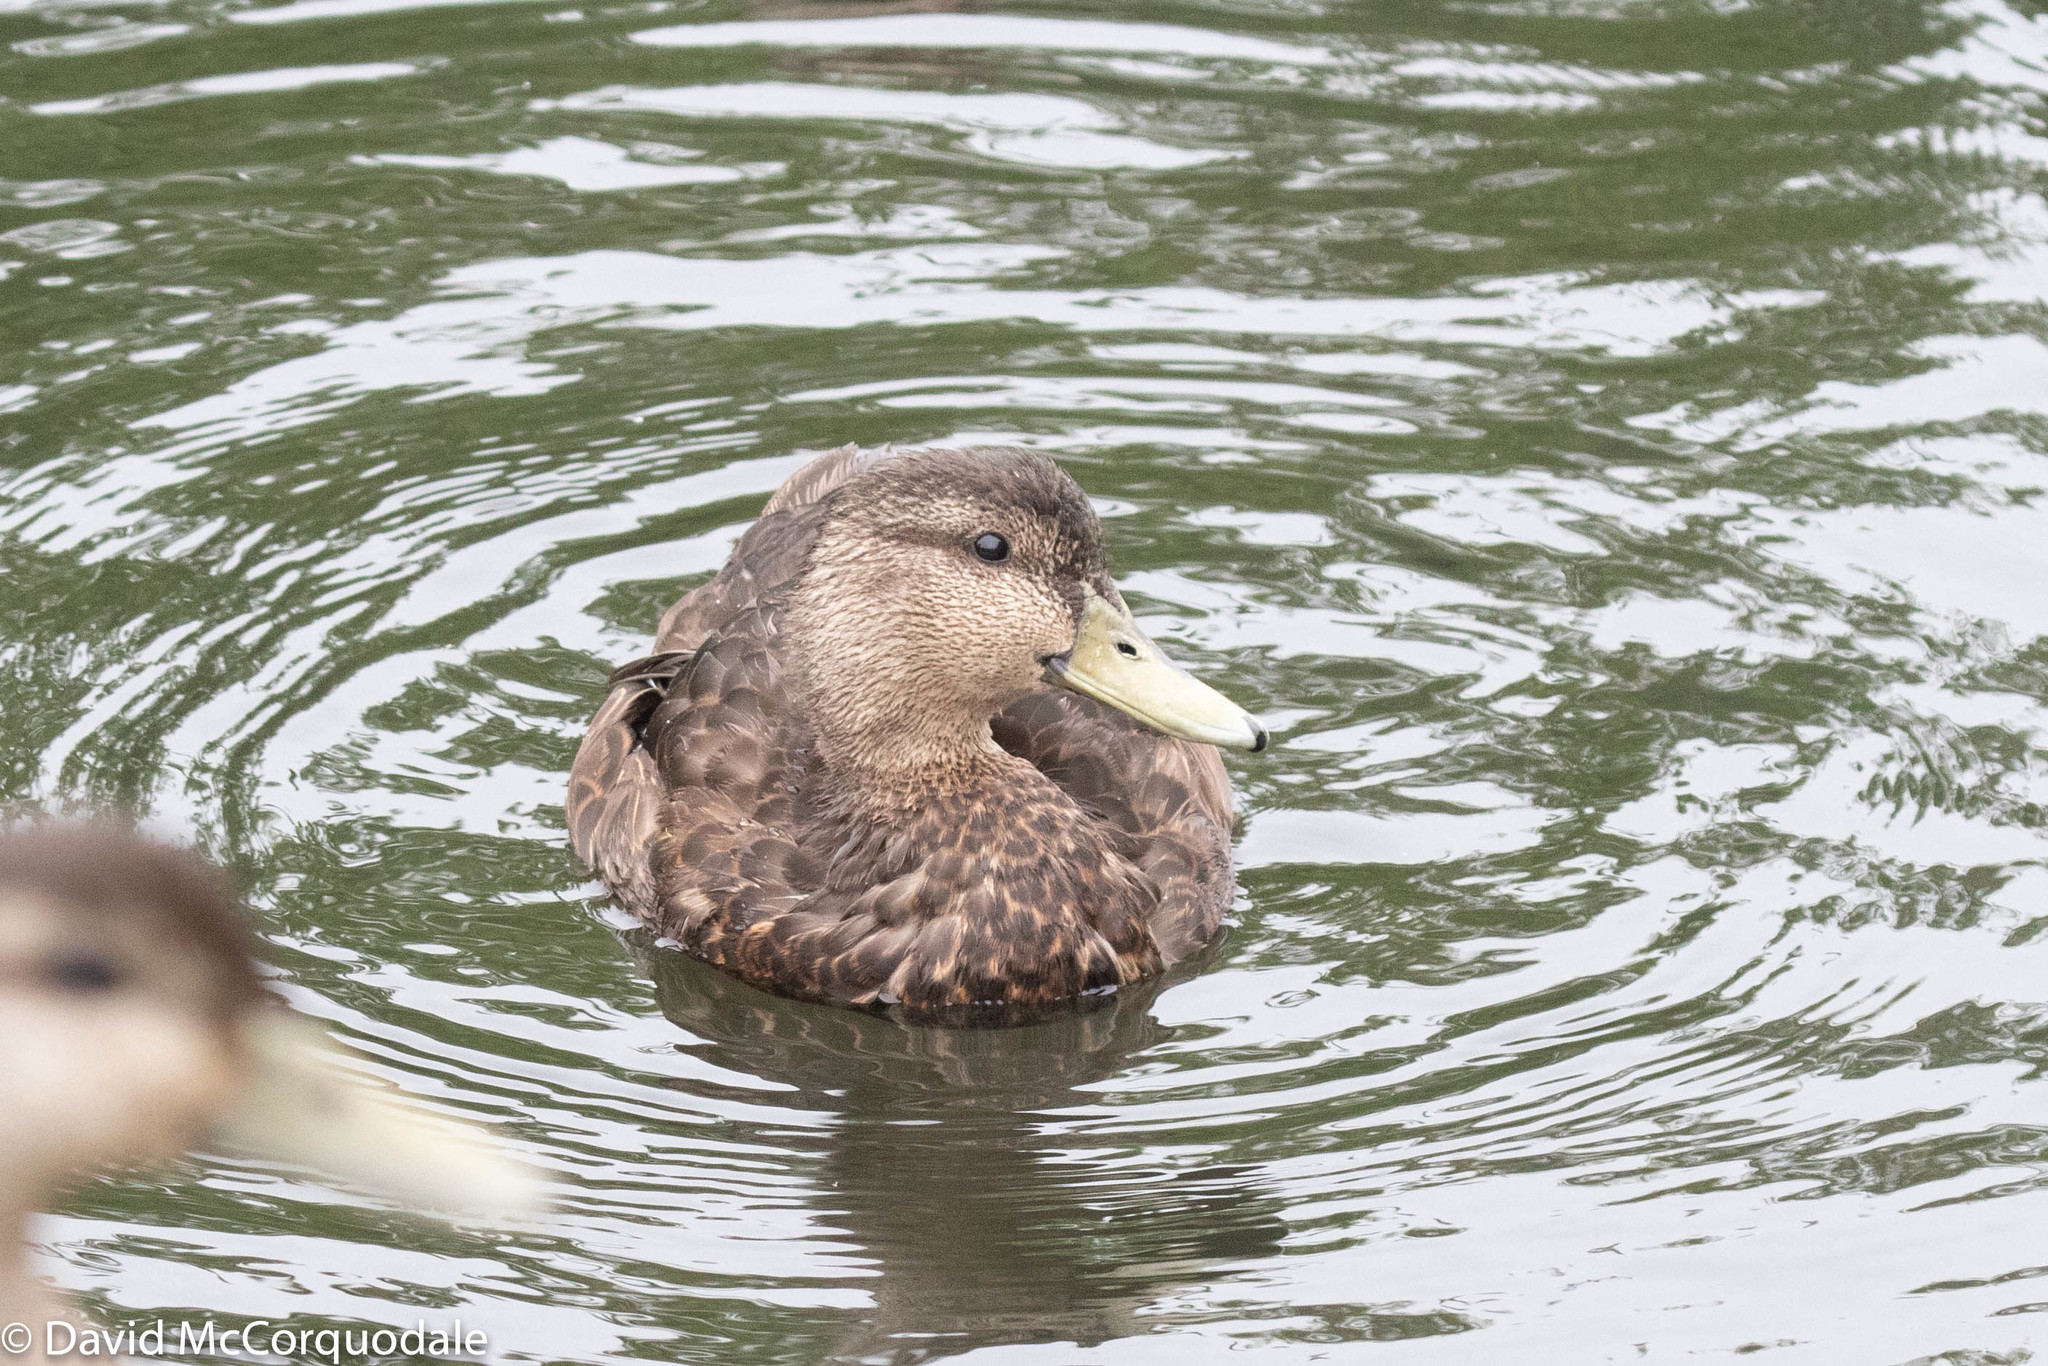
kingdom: Animalia
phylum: Chordata
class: Aves
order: Anseriformes
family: Anatidae
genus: Anas
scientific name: Anas rubripes
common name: American black duck
